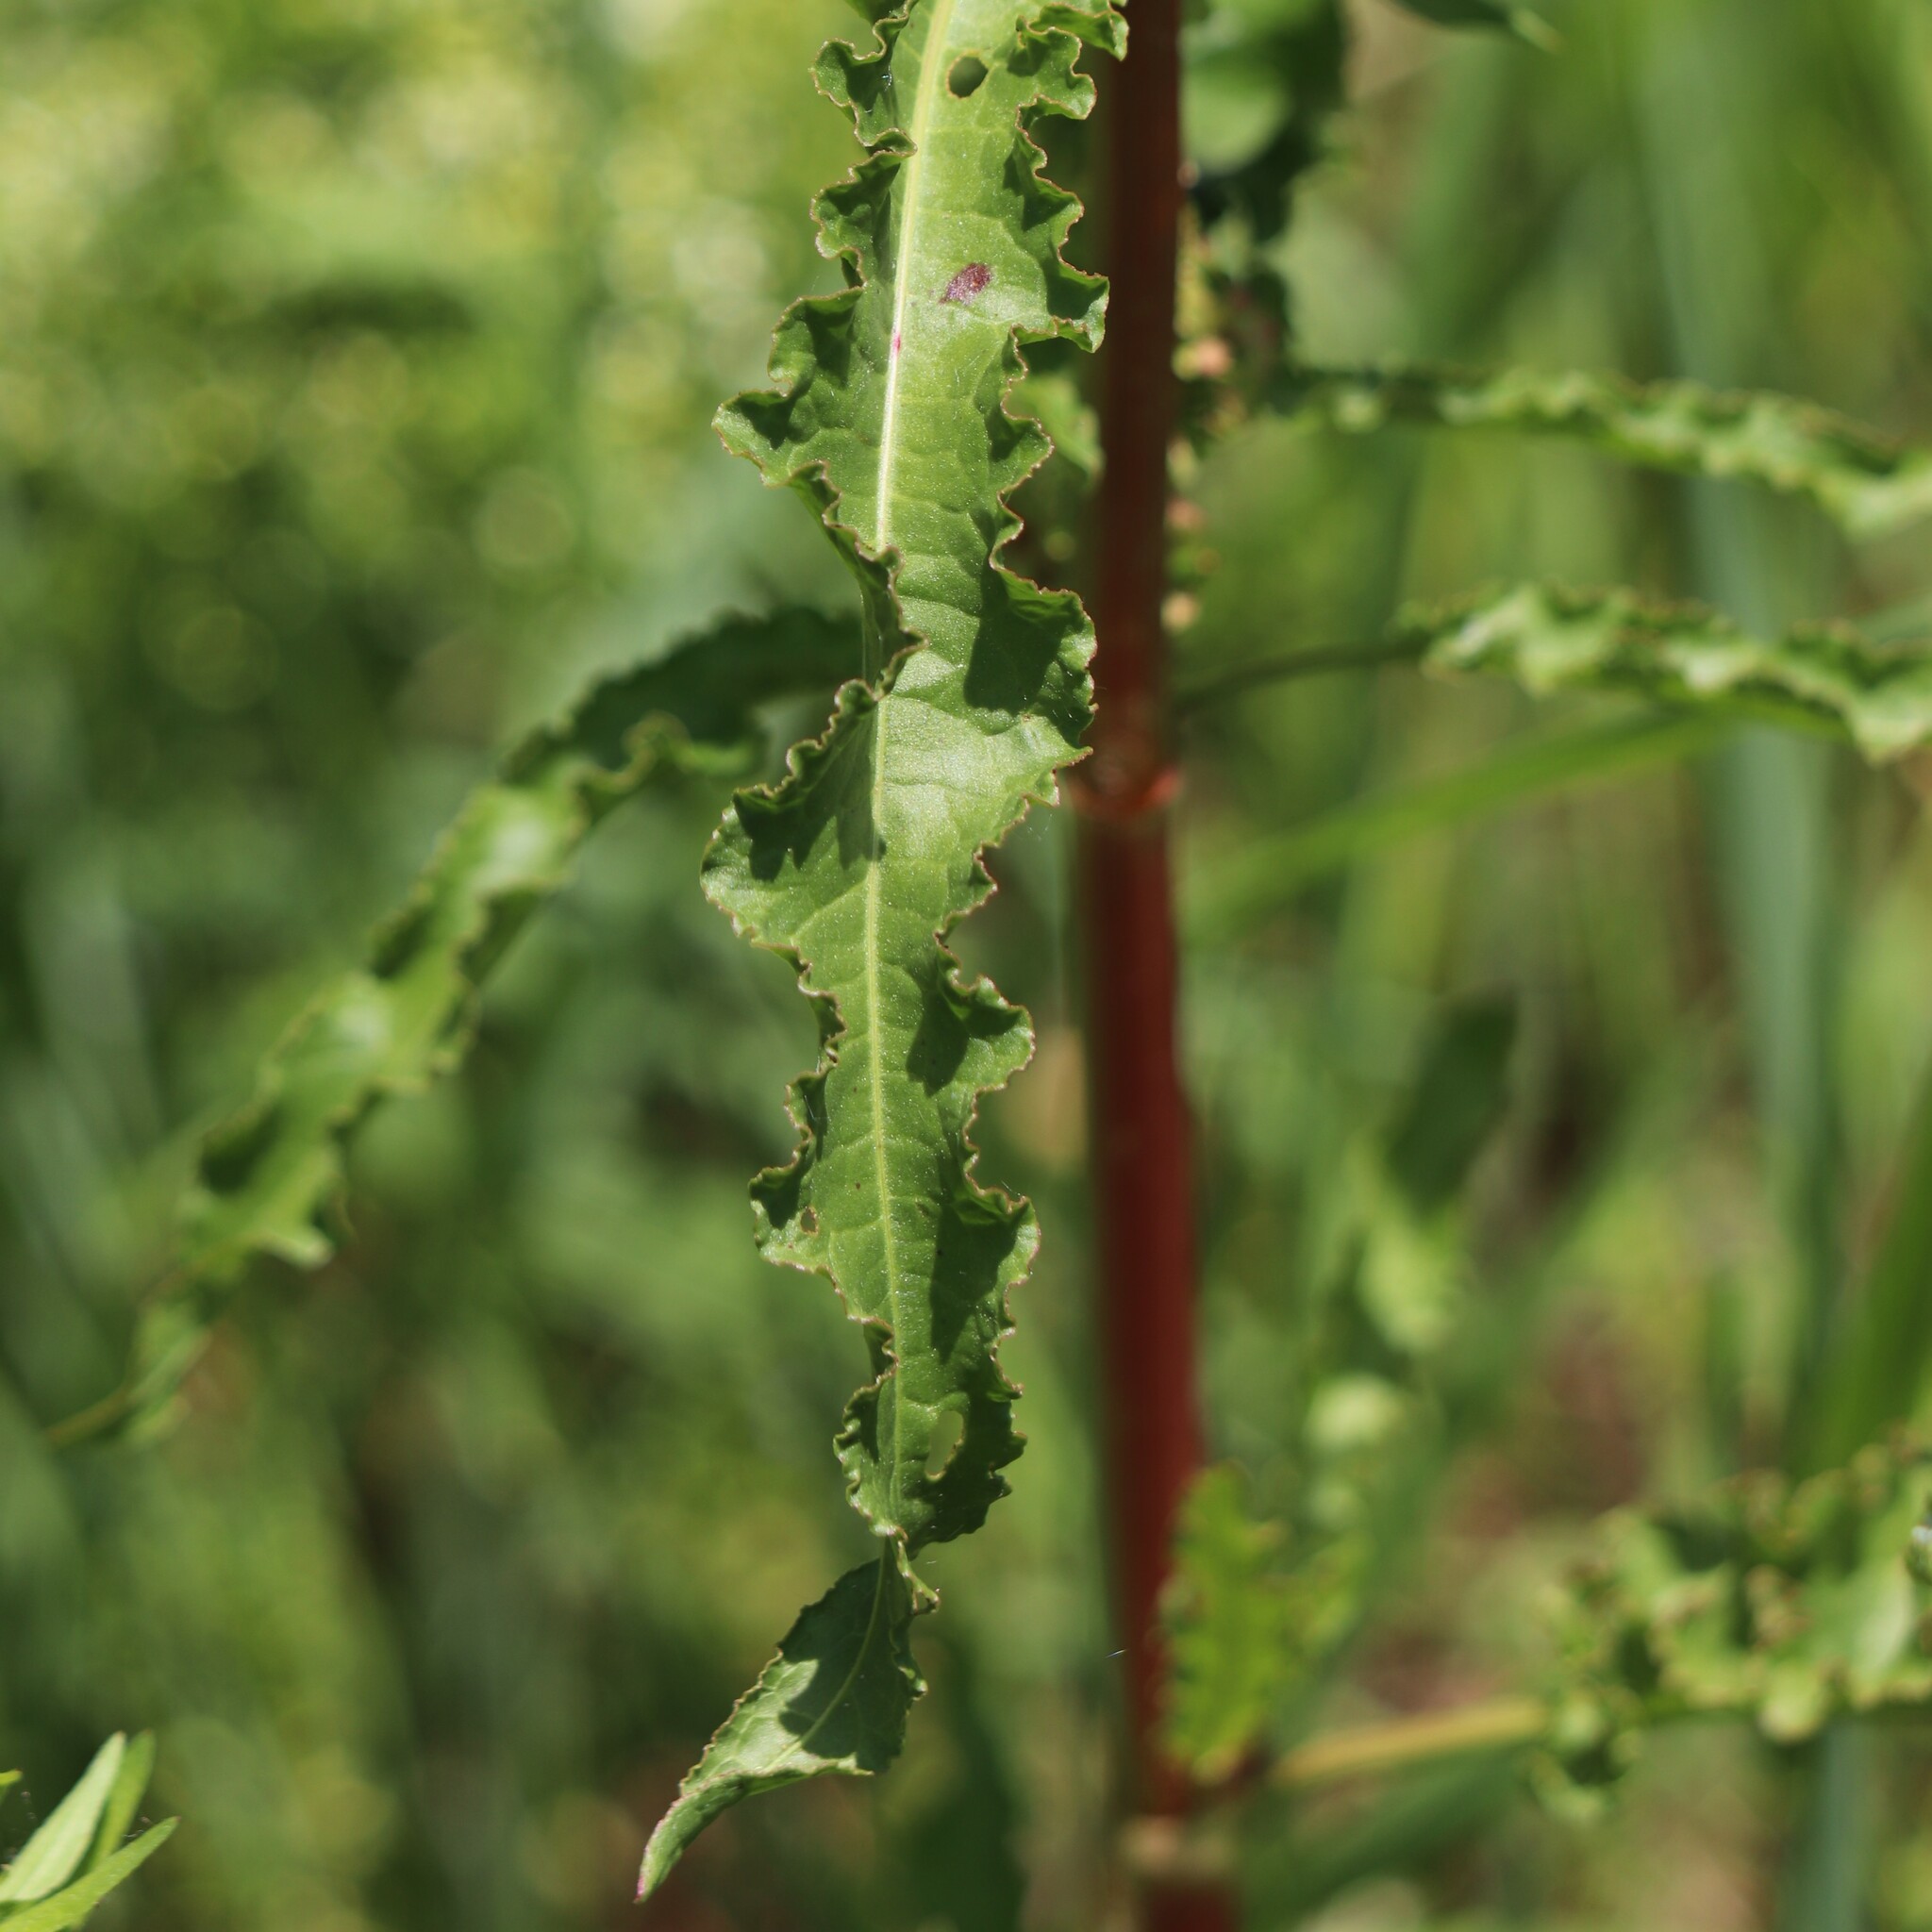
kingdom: Plantae
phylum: Tracheophyta
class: Magnoliopsida
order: Caryophyllales
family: Polygonaceae
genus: Rumex
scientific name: Rumex crispus
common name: Curled dock
